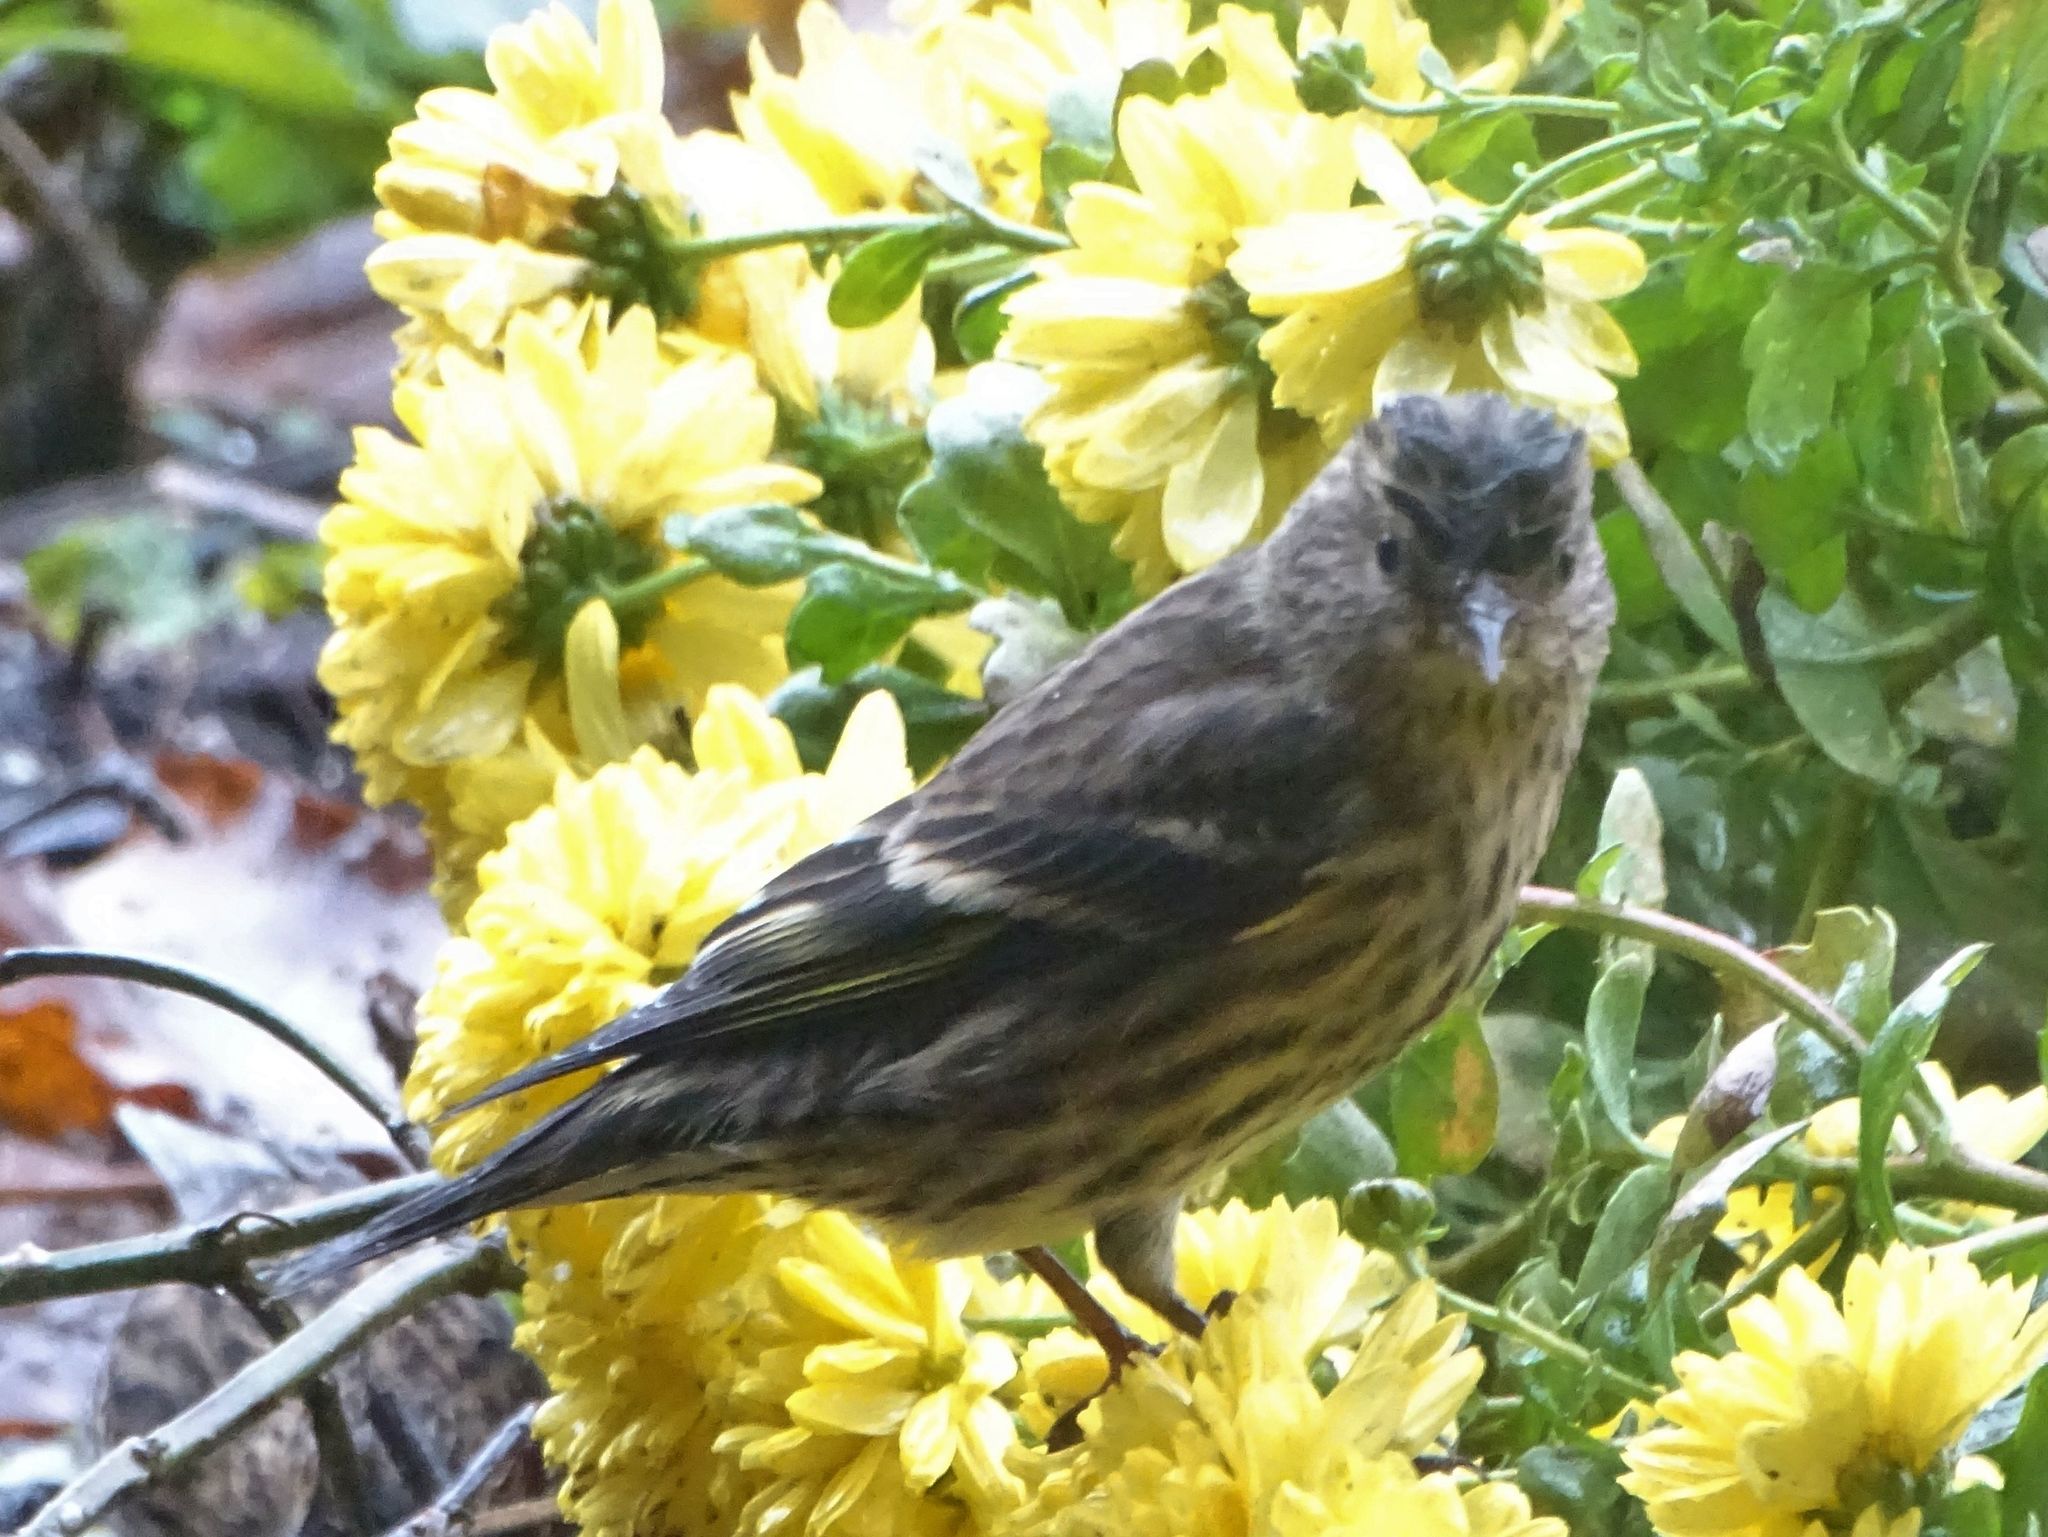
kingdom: Animalia
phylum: Chordata
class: Aves
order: Passeriformes
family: Fringillidae
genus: Spinus
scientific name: Spinus pinus
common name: Pine siskin
